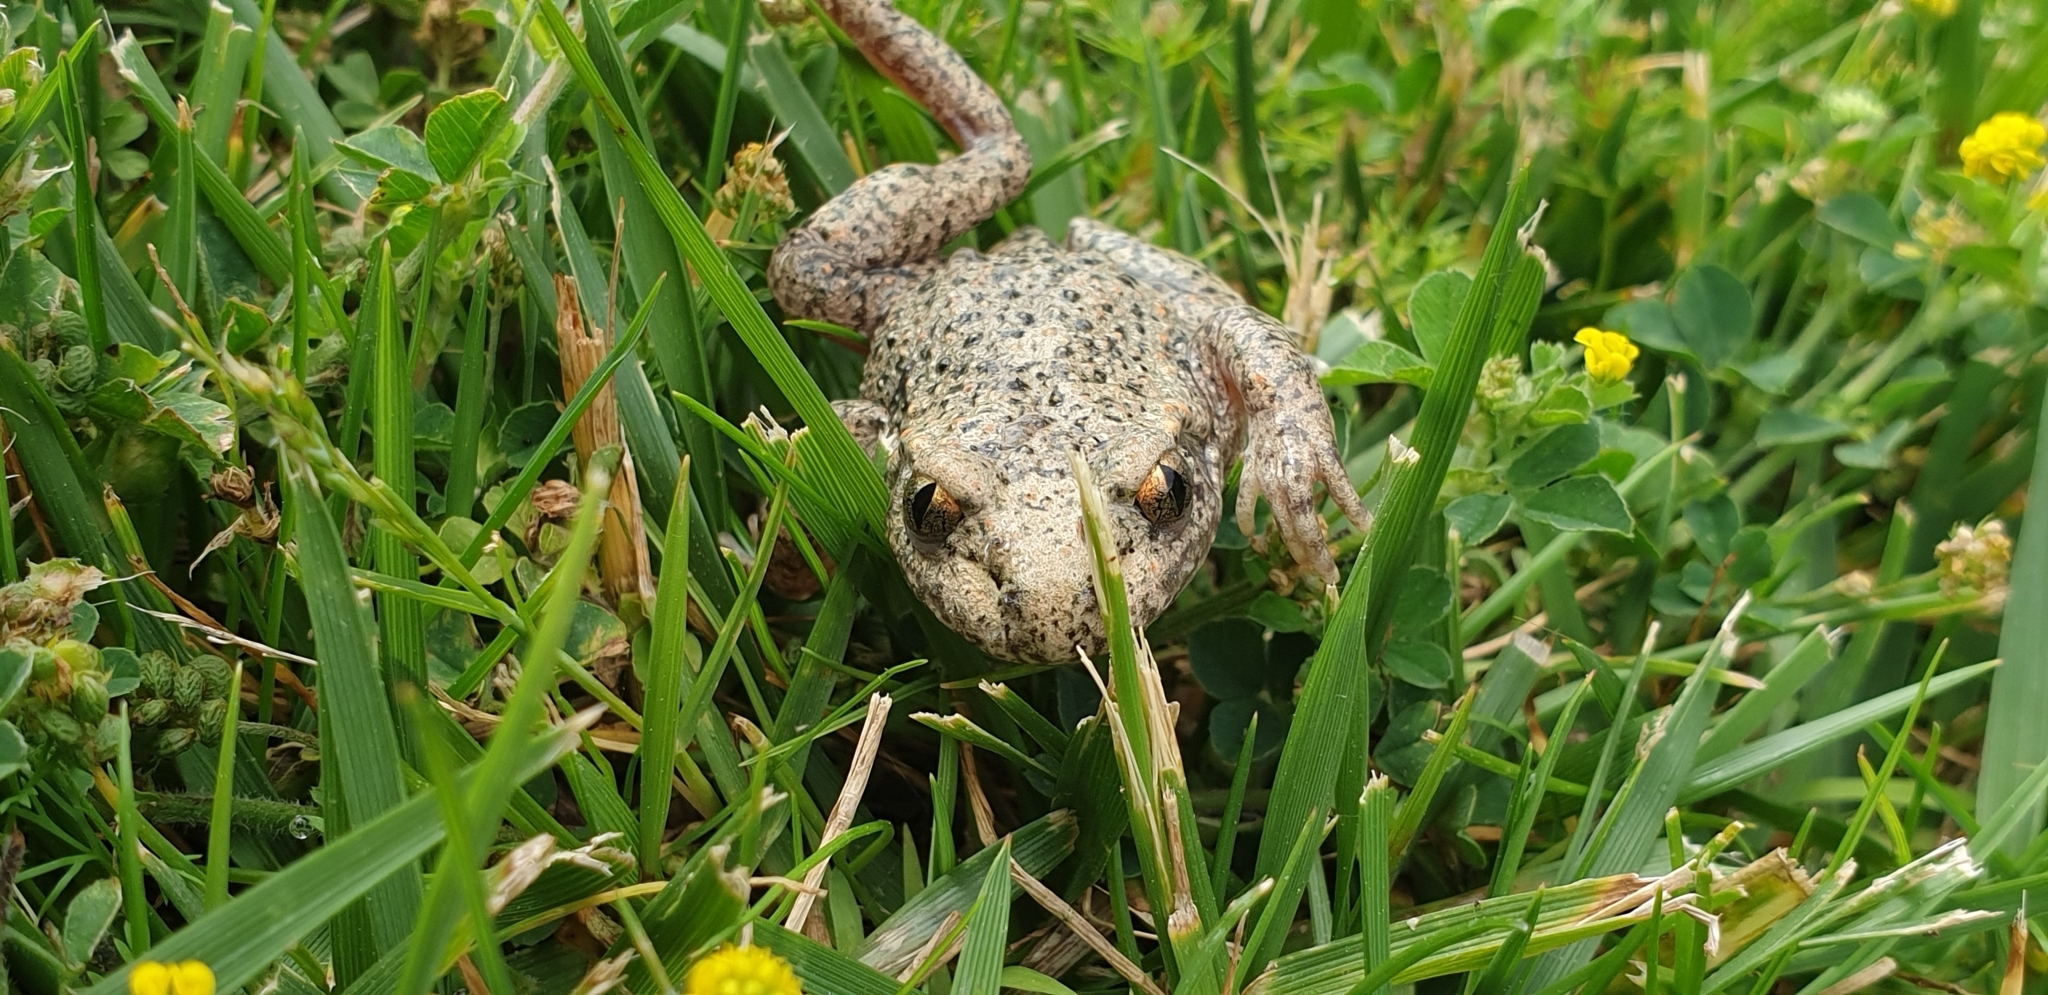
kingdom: Animalia
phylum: Chordata
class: Amphibia
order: Anura
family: Alytidae
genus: Alytes
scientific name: Alytes obstetricans
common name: Midwife toad
